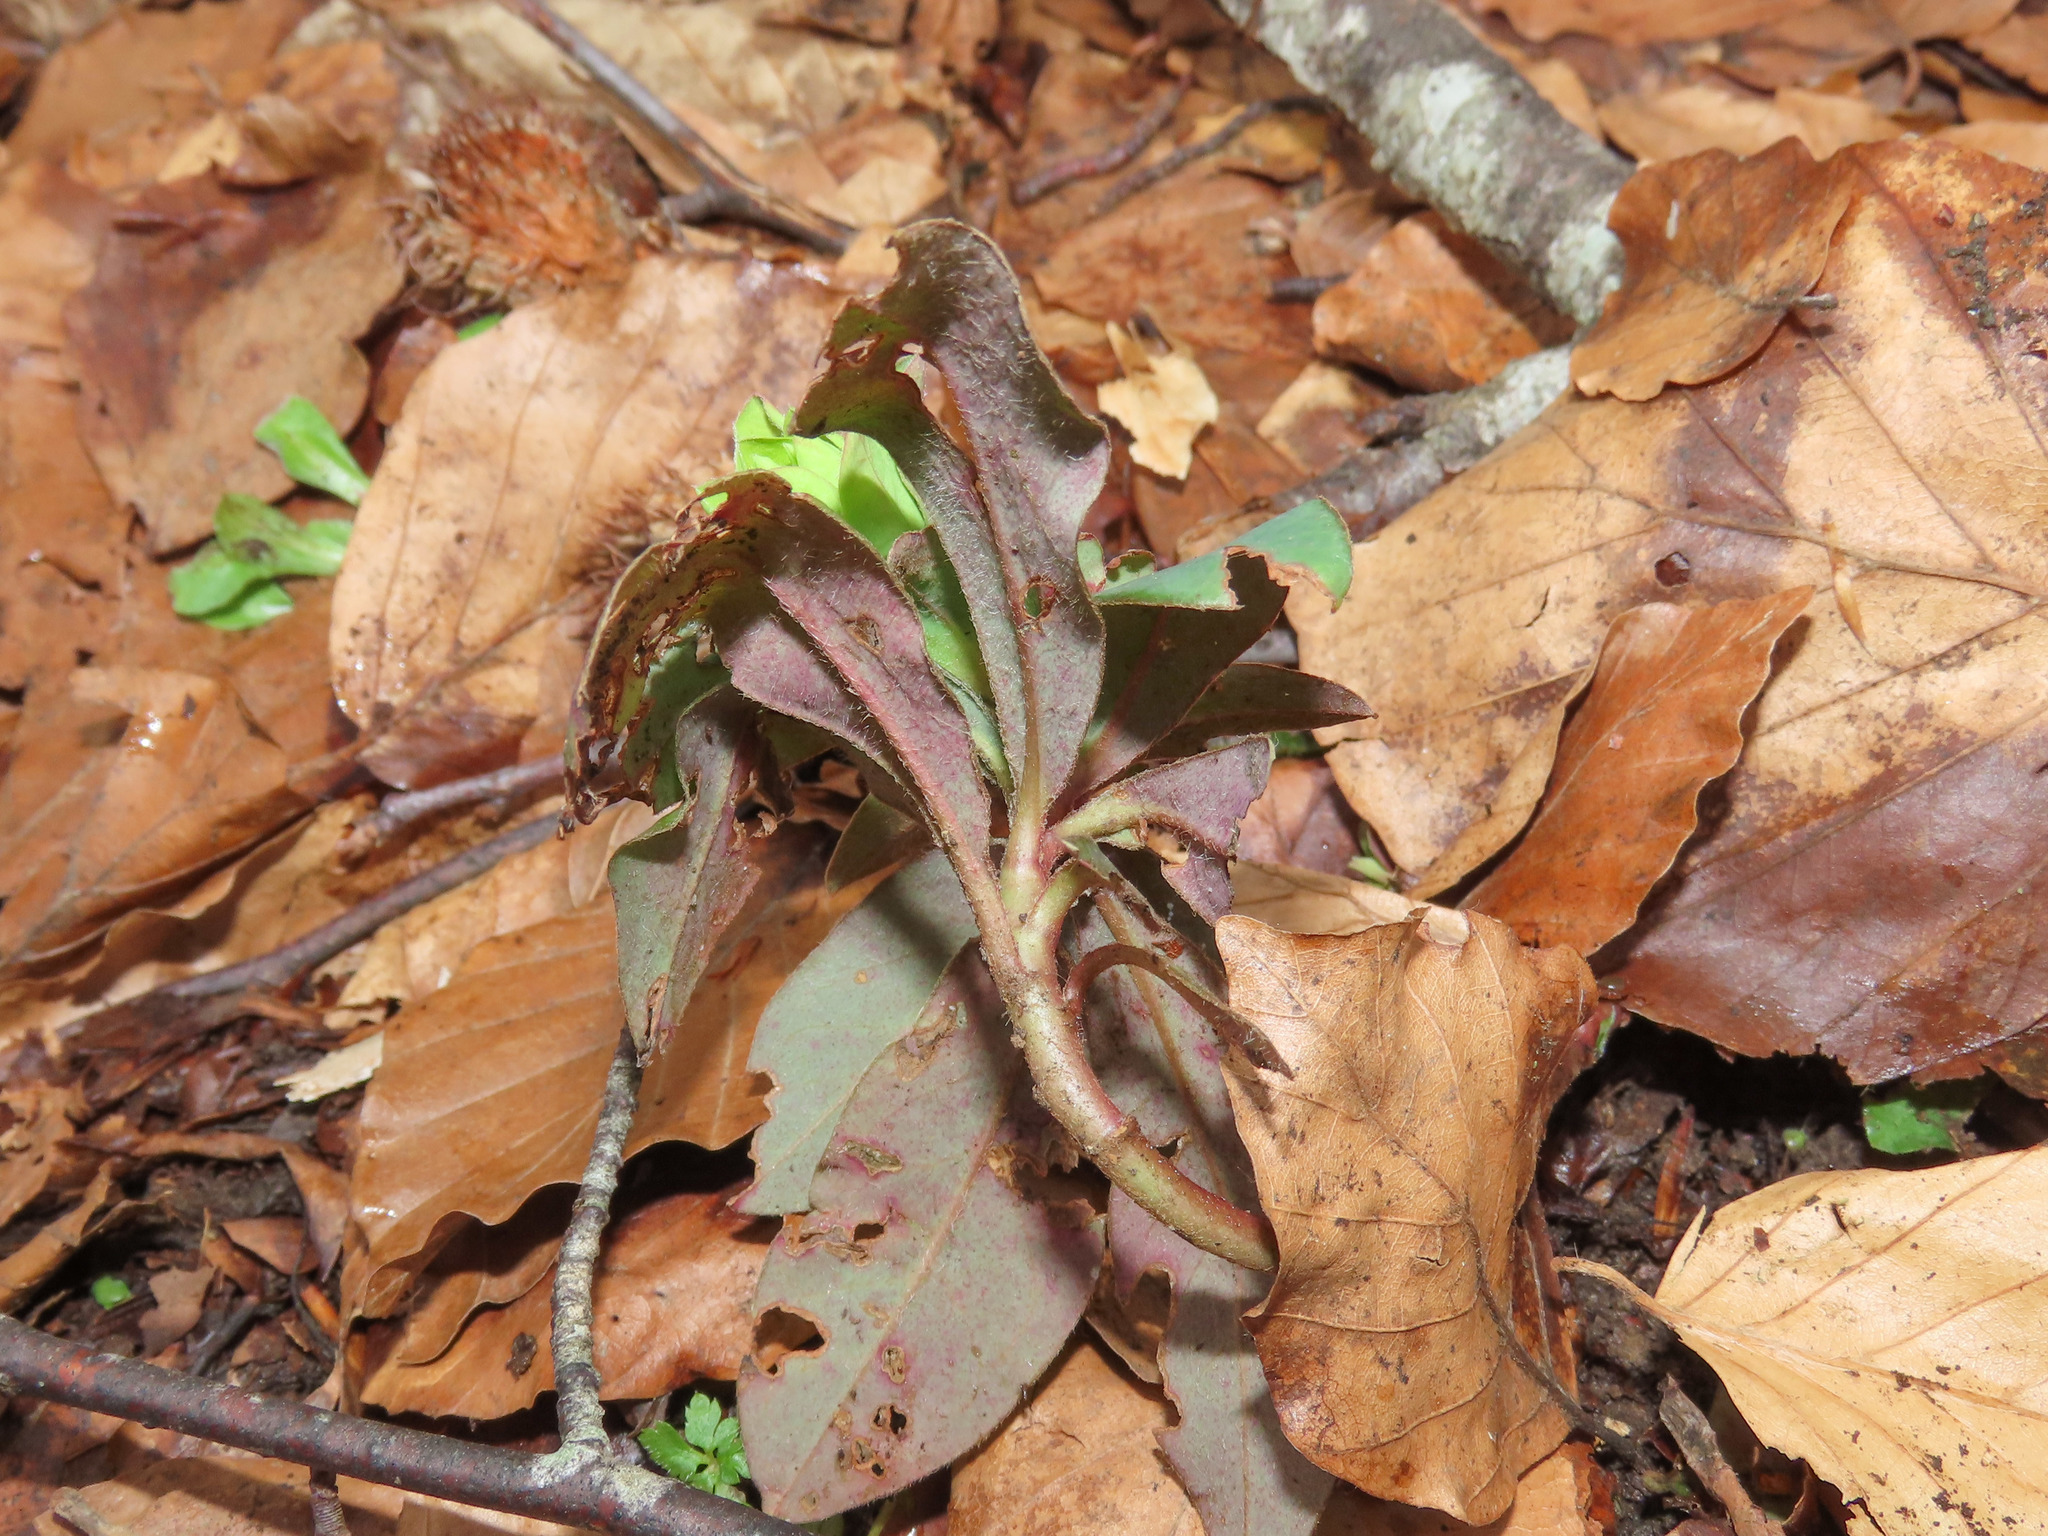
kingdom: Plantae
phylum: Tracheophyta
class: Magnoliopsida
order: Malpighiales
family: Euphorbiaceae
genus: Euphorbia
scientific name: Euphorbia amygdaloides
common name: Wood spurge
